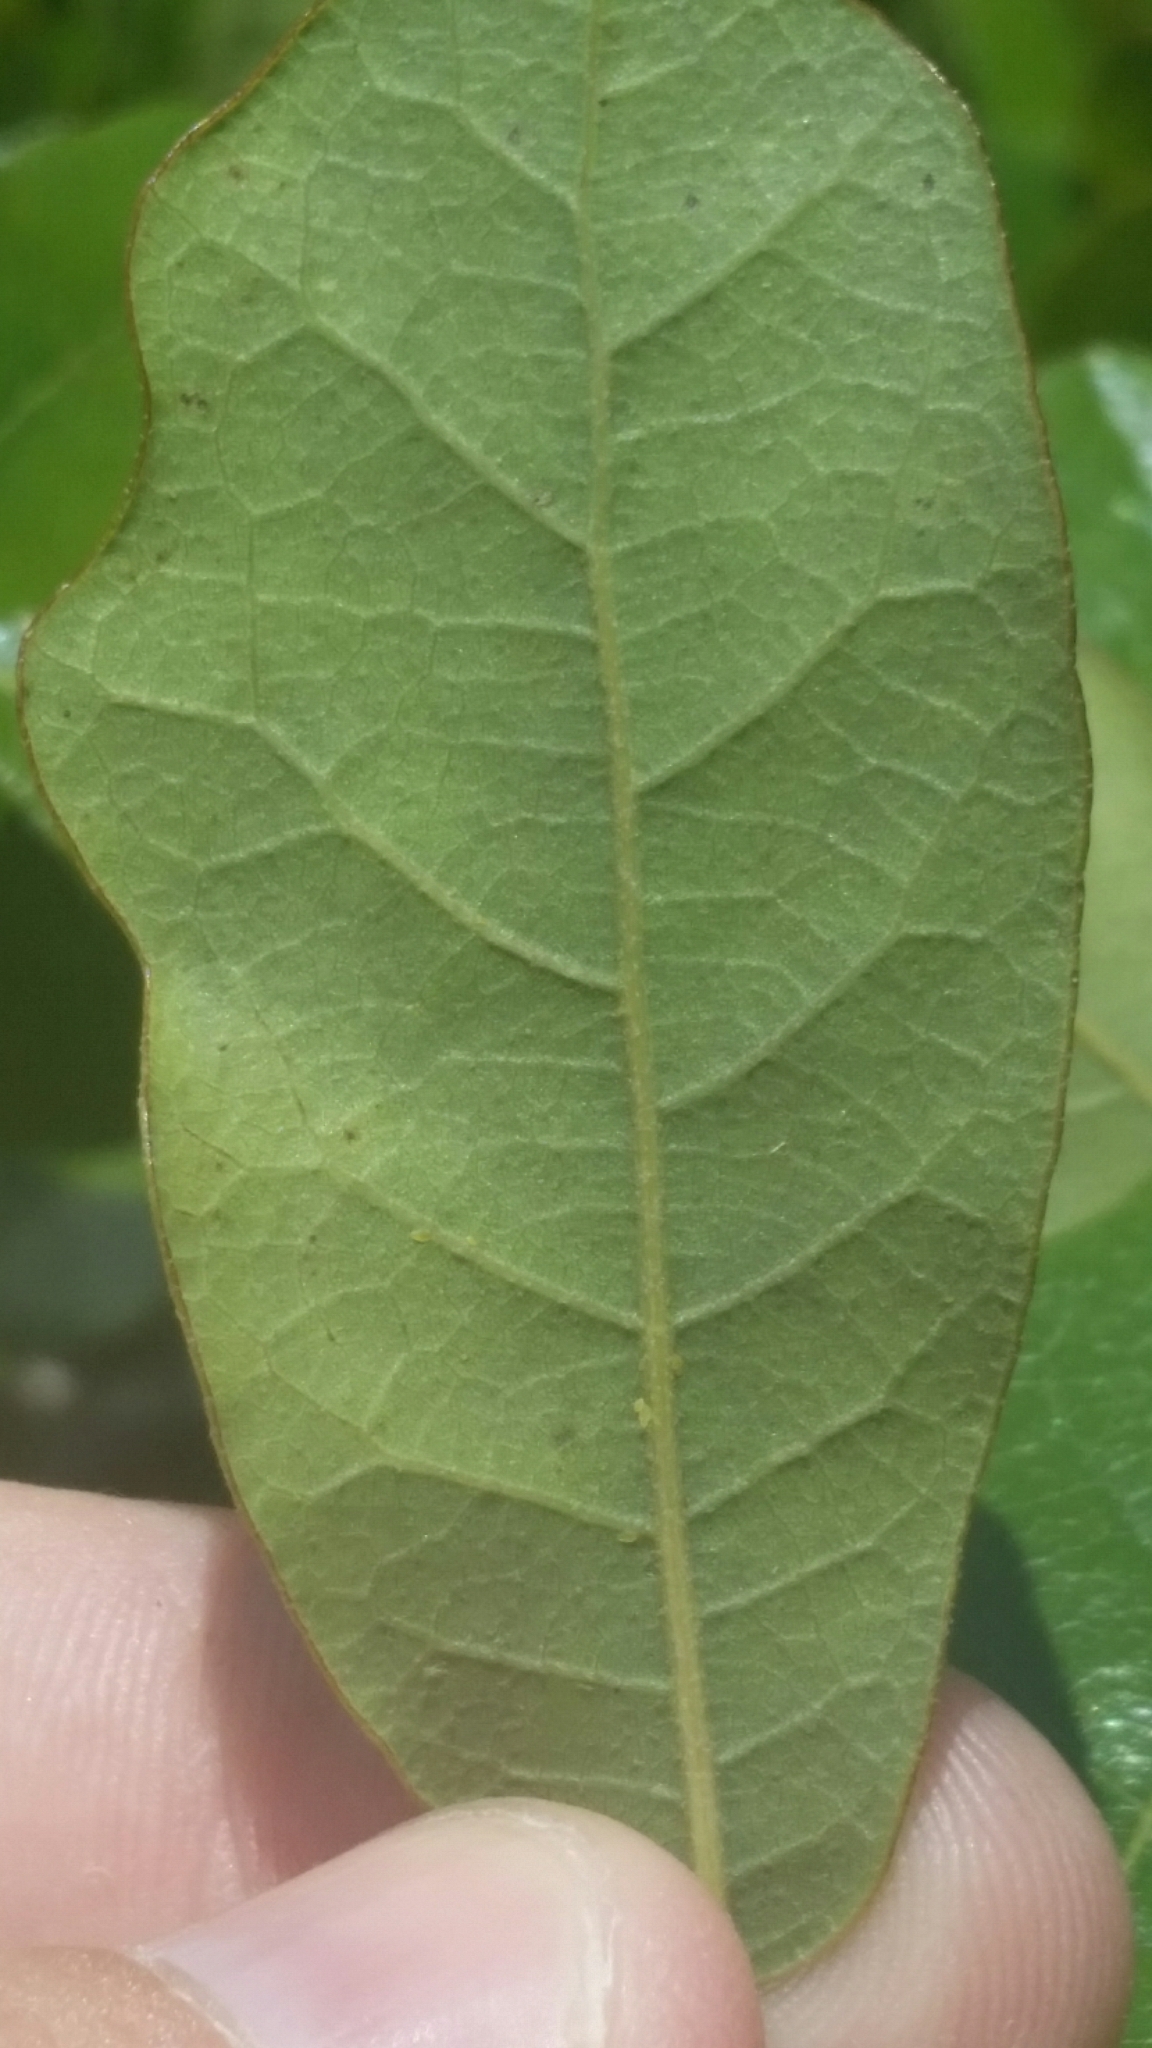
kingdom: Plantae
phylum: Tracheophyta
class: Magnoliopsida
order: Fagales
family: Fagaceae
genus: Quercus
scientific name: Quercus chapmanii
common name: Chapman oak
